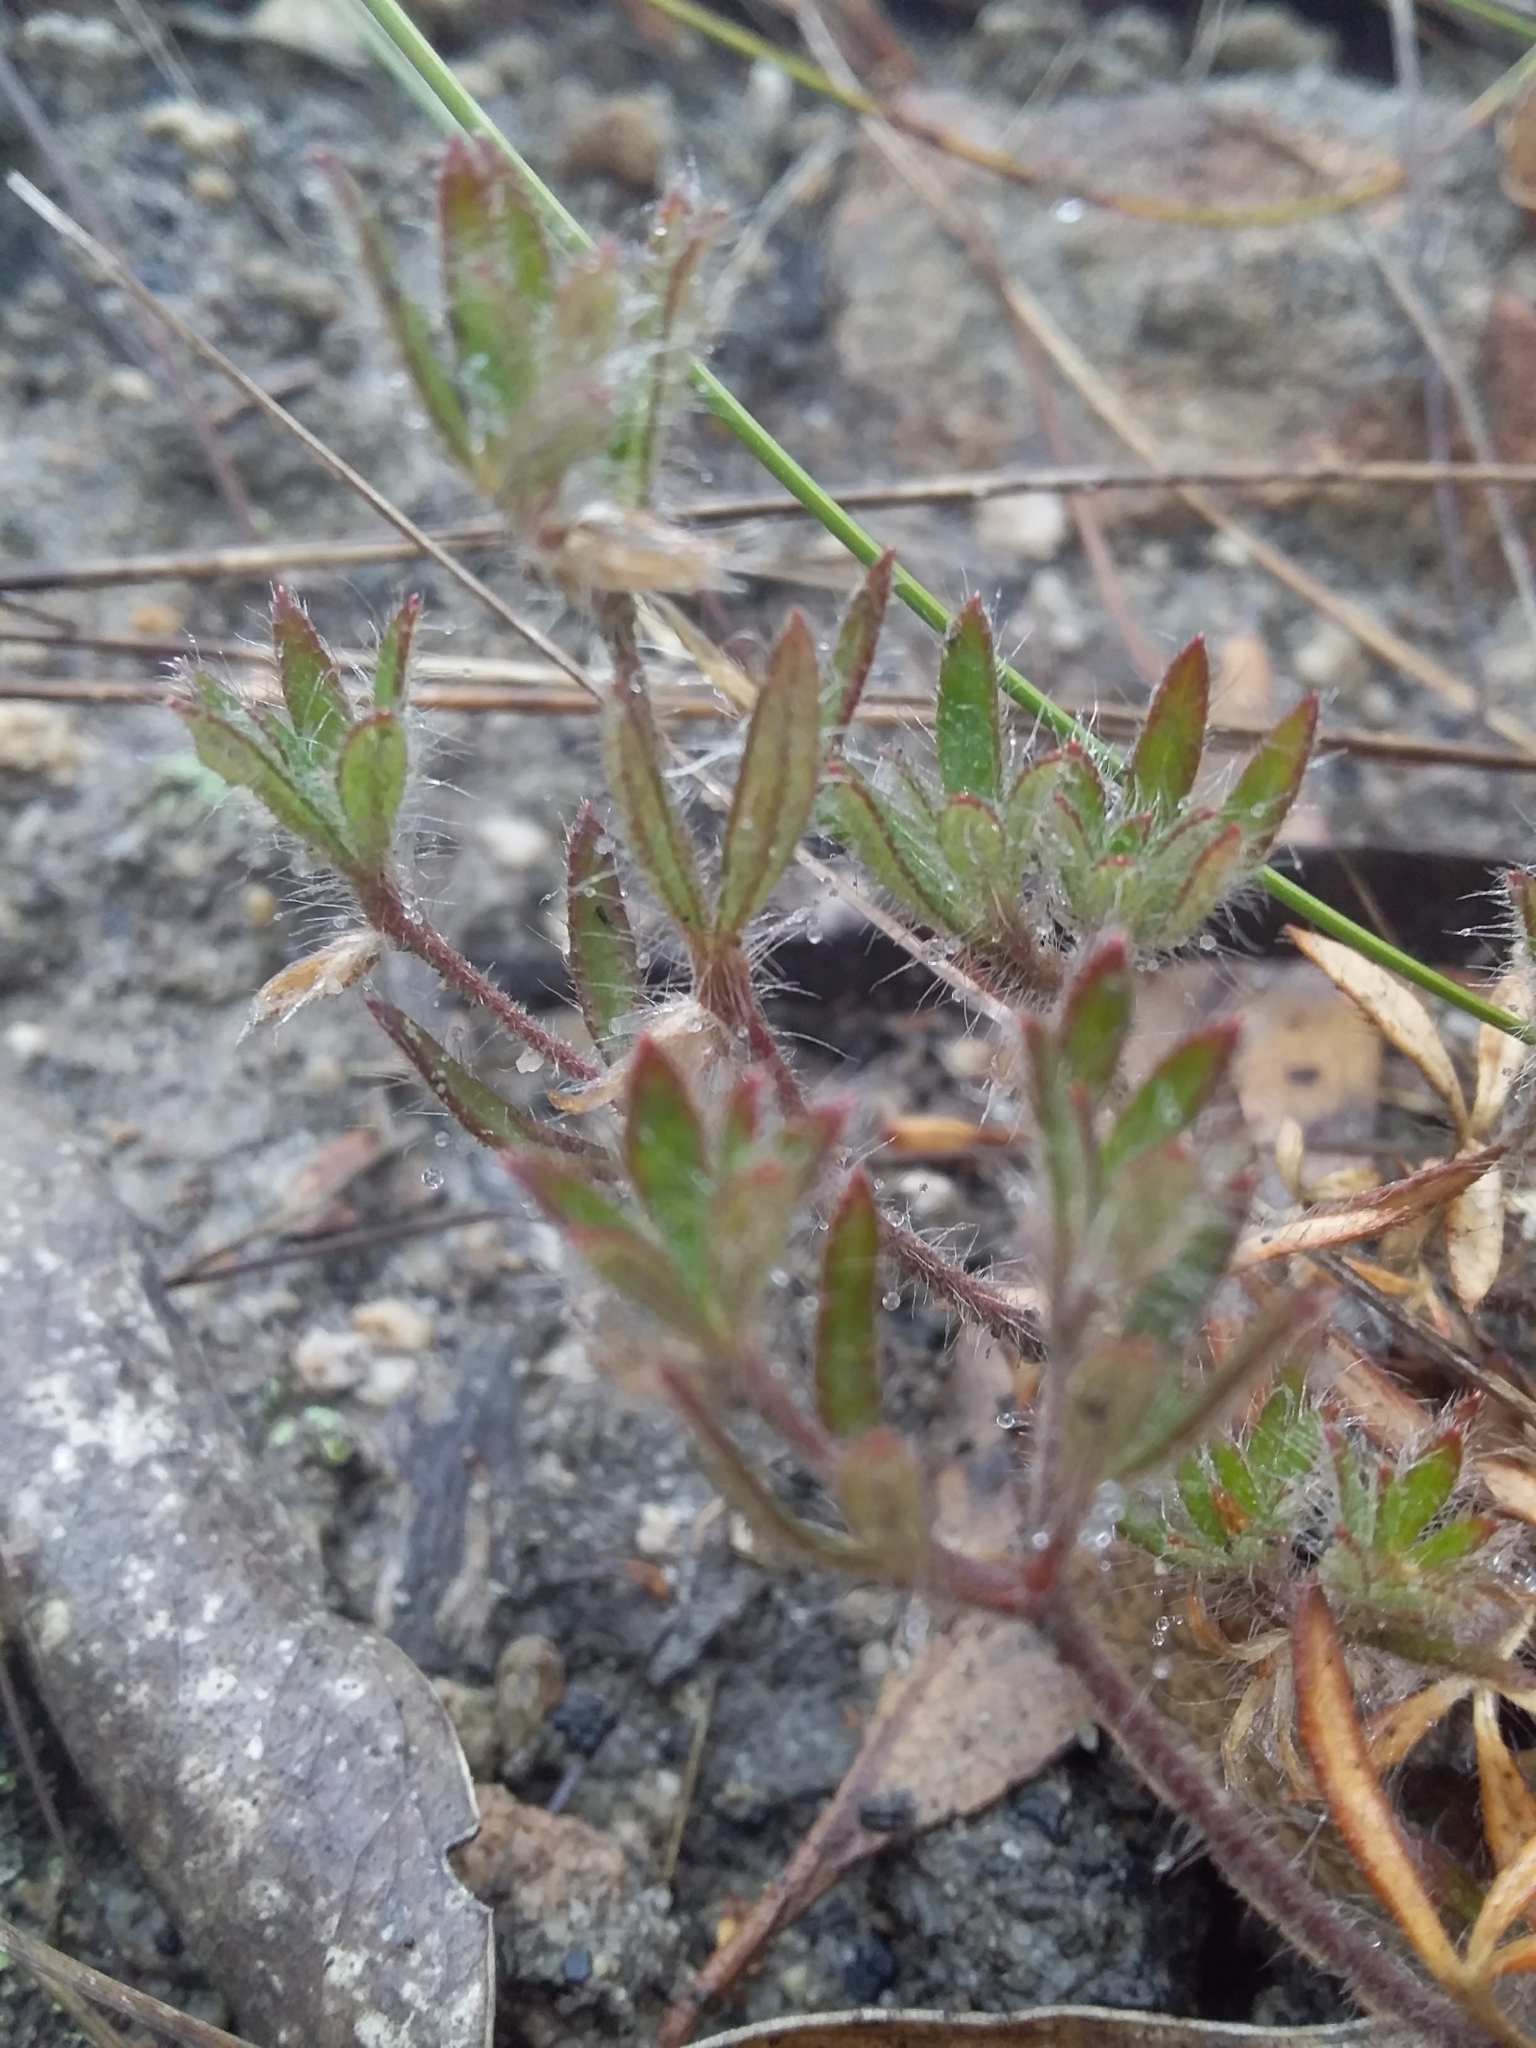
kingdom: Plantae
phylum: Tracheophyta
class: Magnoliopsida
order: Apiales
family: Apiaceae
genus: Xanthosia
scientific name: Xanthosia huegelii
